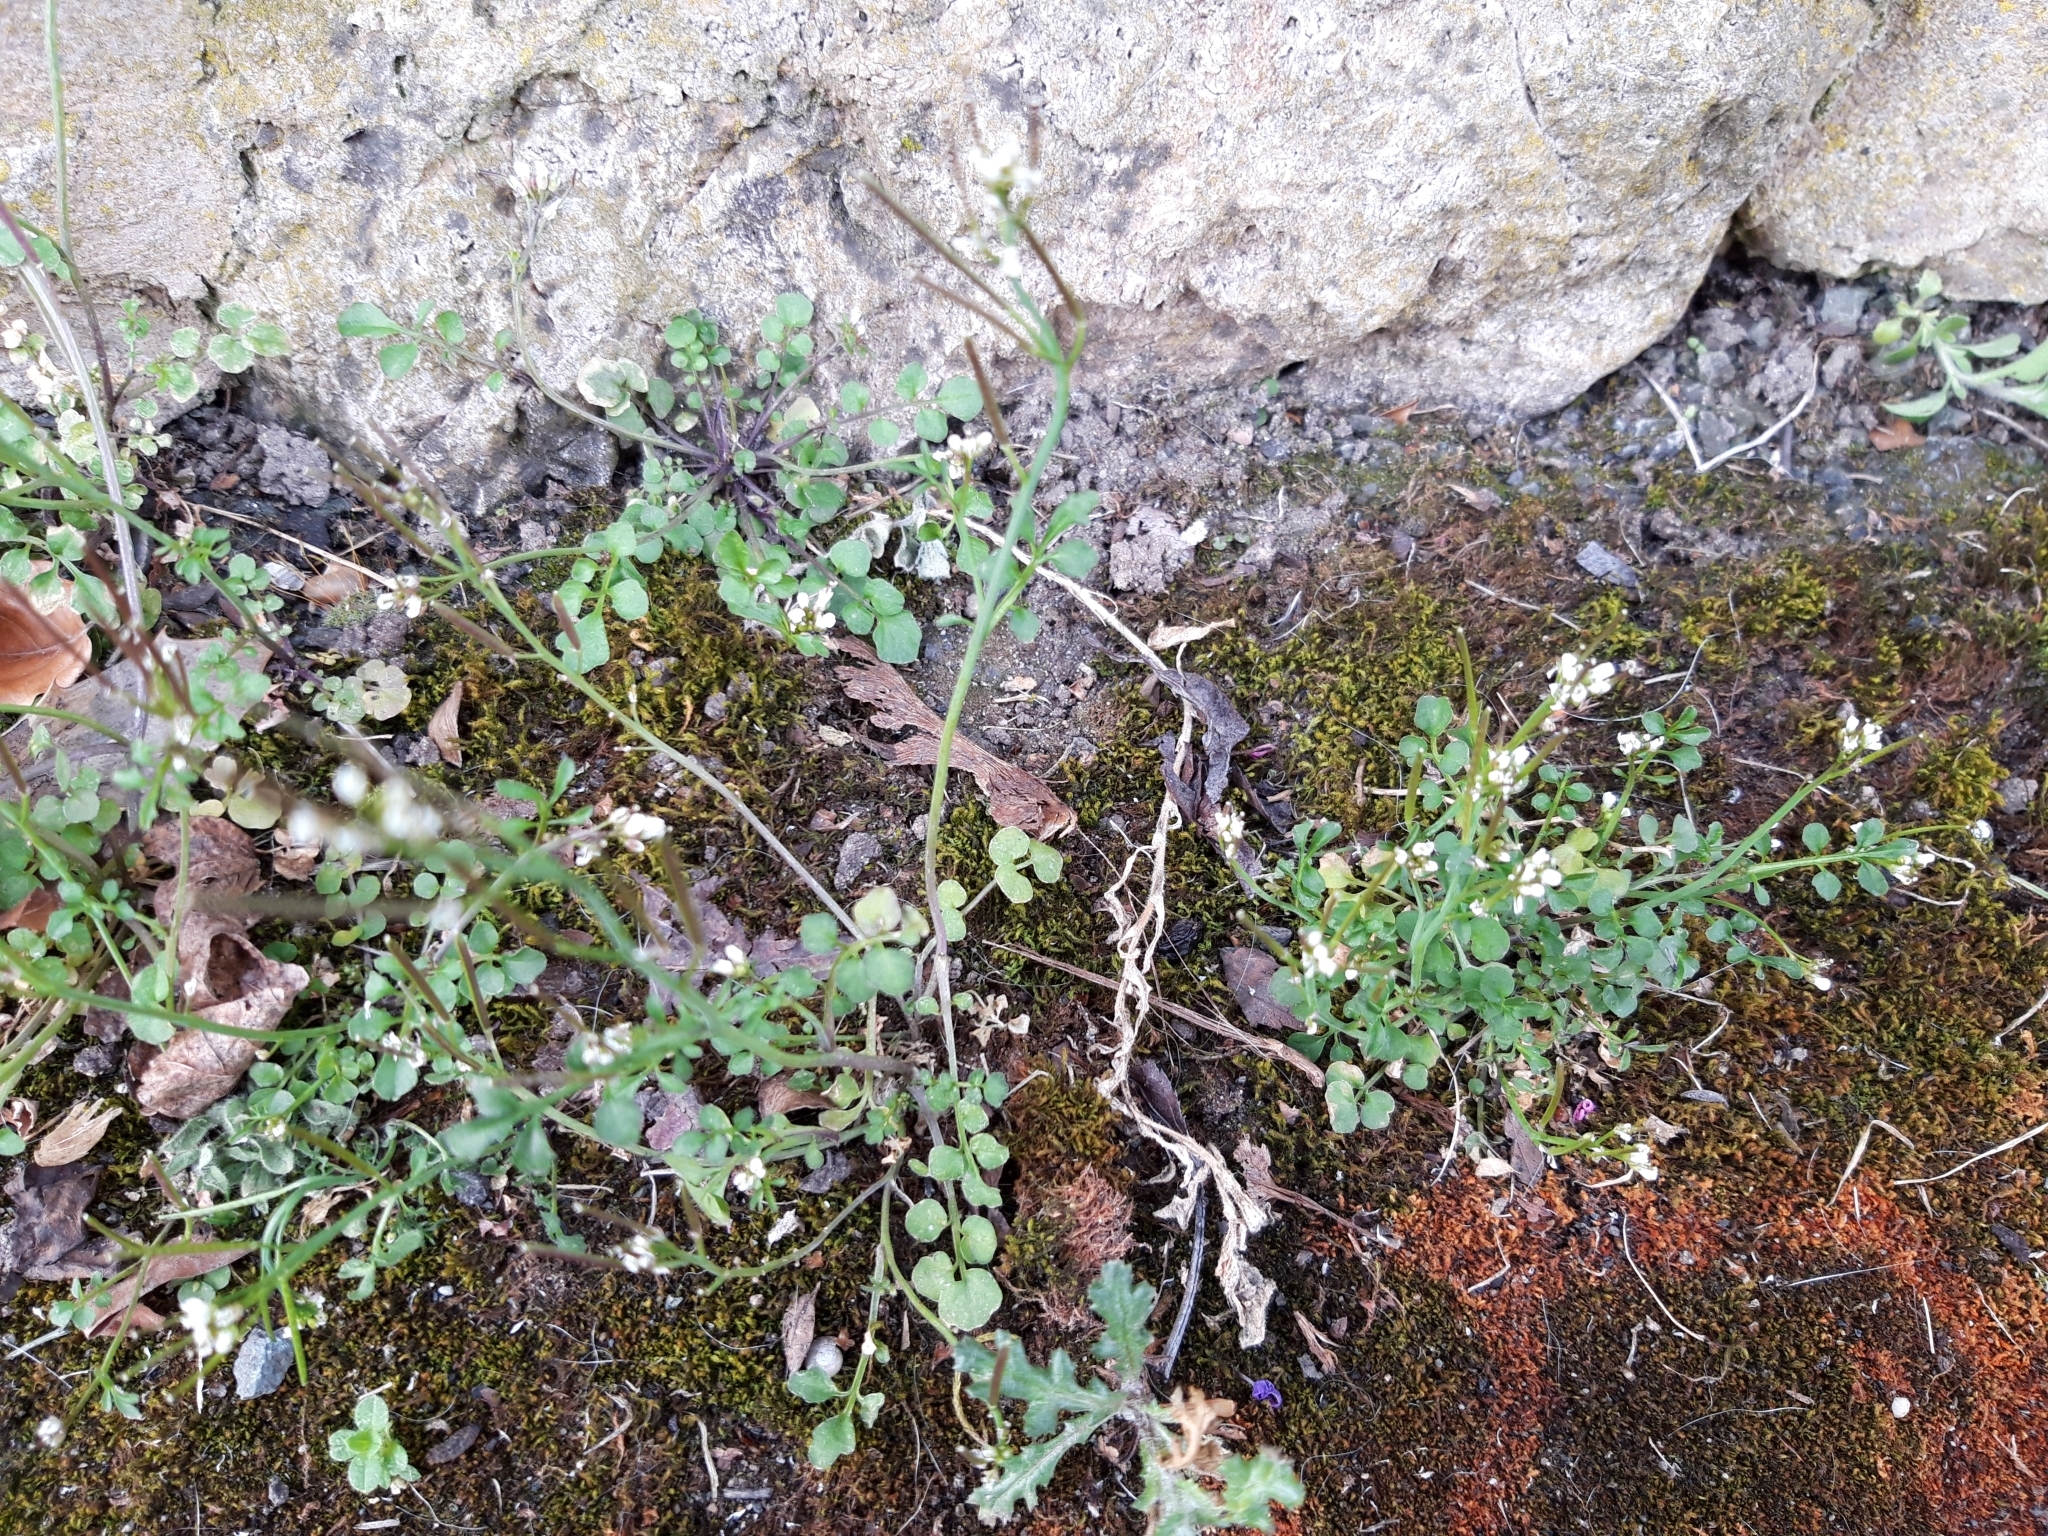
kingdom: Plantae
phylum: Tracheophyta
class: Magnoliopsida
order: Brassicales
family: Brassicaceae
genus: Cardamine
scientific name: Cardamine hirsuta
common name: Hairy bittercress
